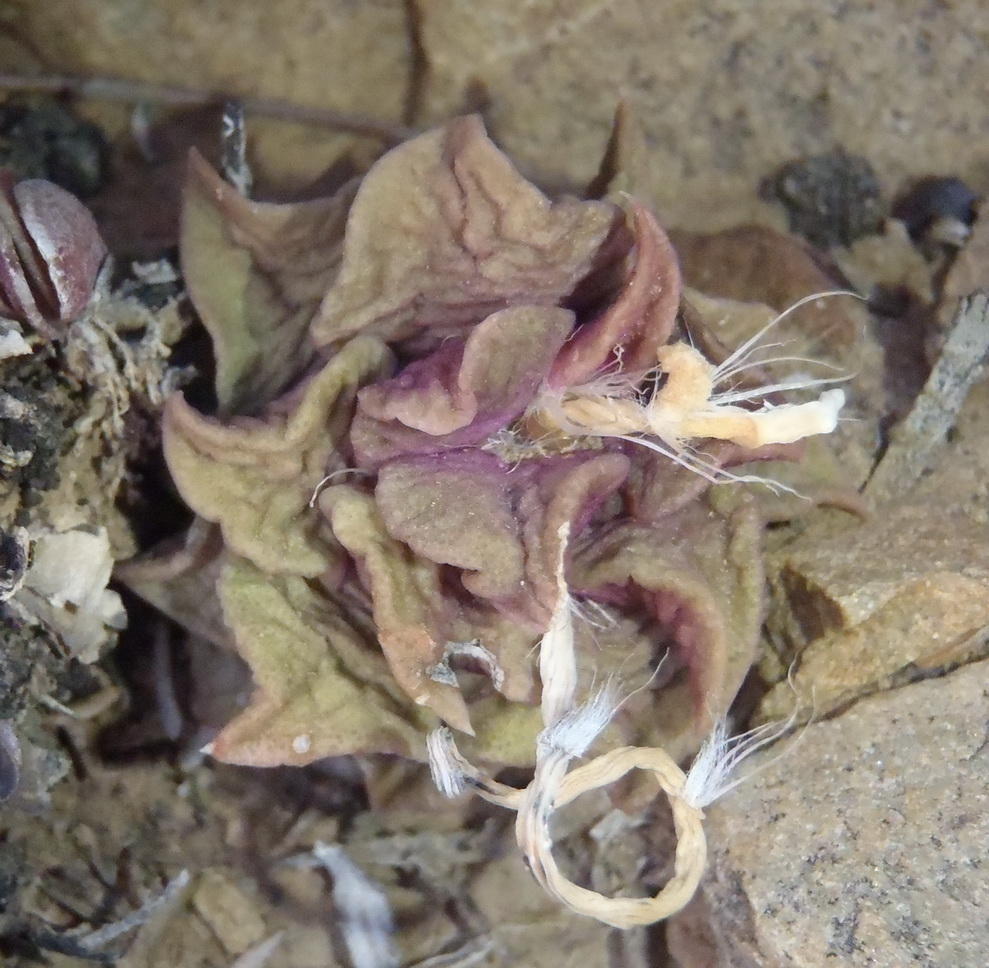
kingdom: Plantae
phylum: Tracheophyta
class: Magnoliopsida
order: Caryophyllales
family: Anacampserotaceae
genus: Anacampseros
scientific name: Anacampseros telephiastrum
